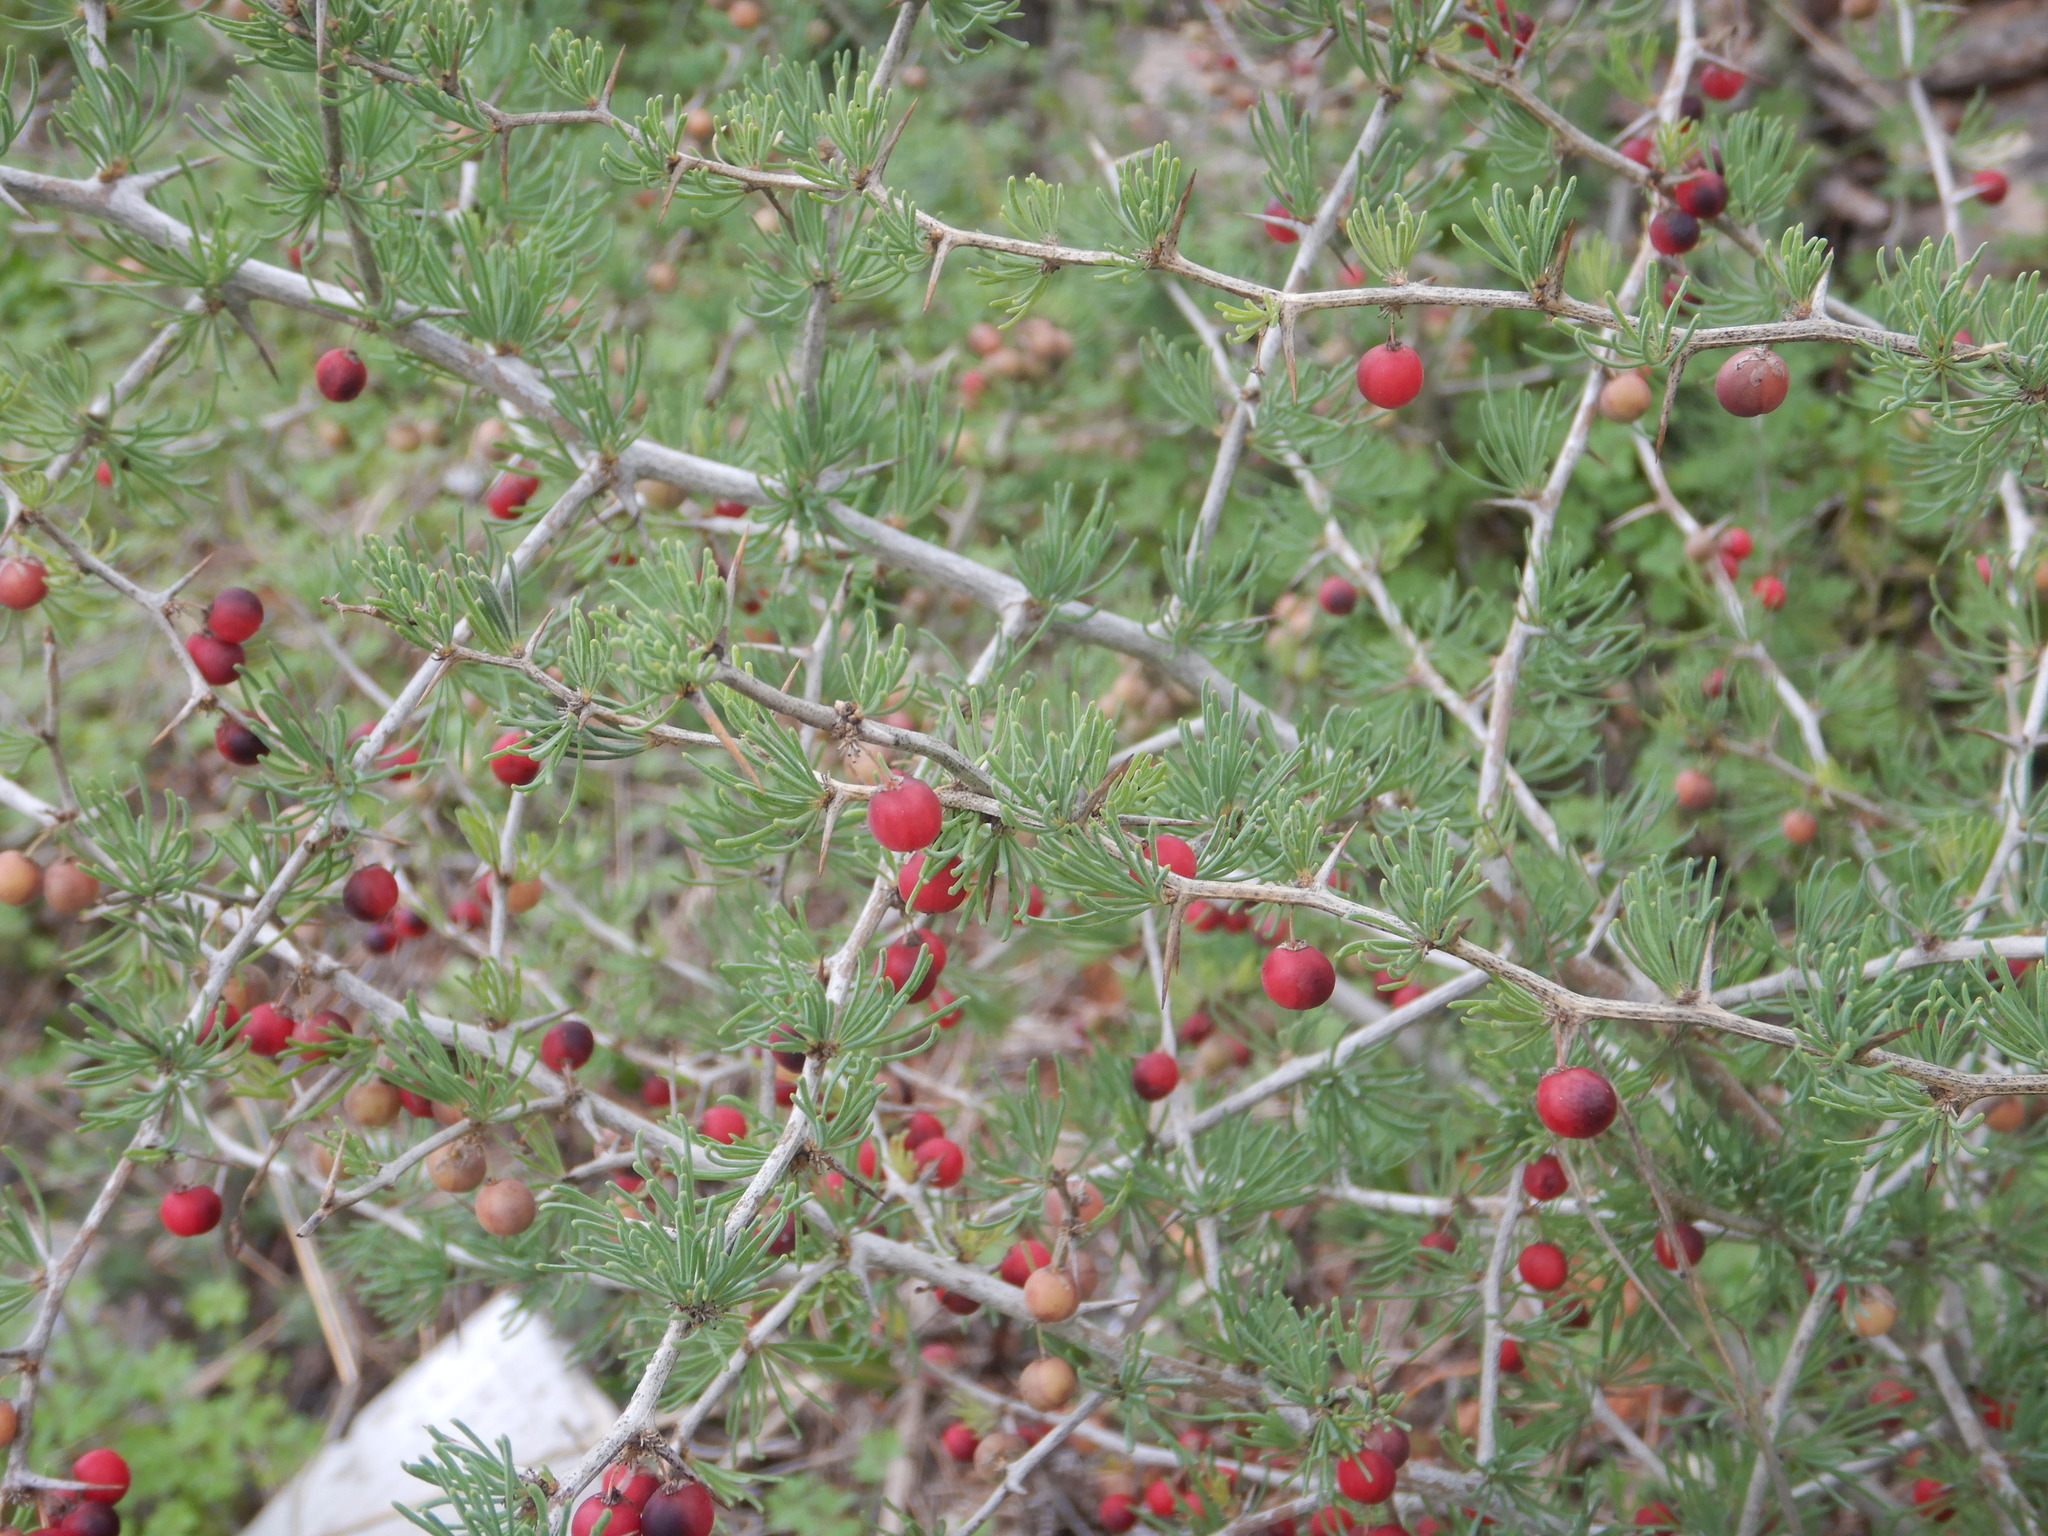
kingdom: Plantae
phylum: Tracheophyta
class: Liliopsida
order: Asparagales
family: Asparagaceae
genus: Asparagus
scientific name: Asparagus albus
